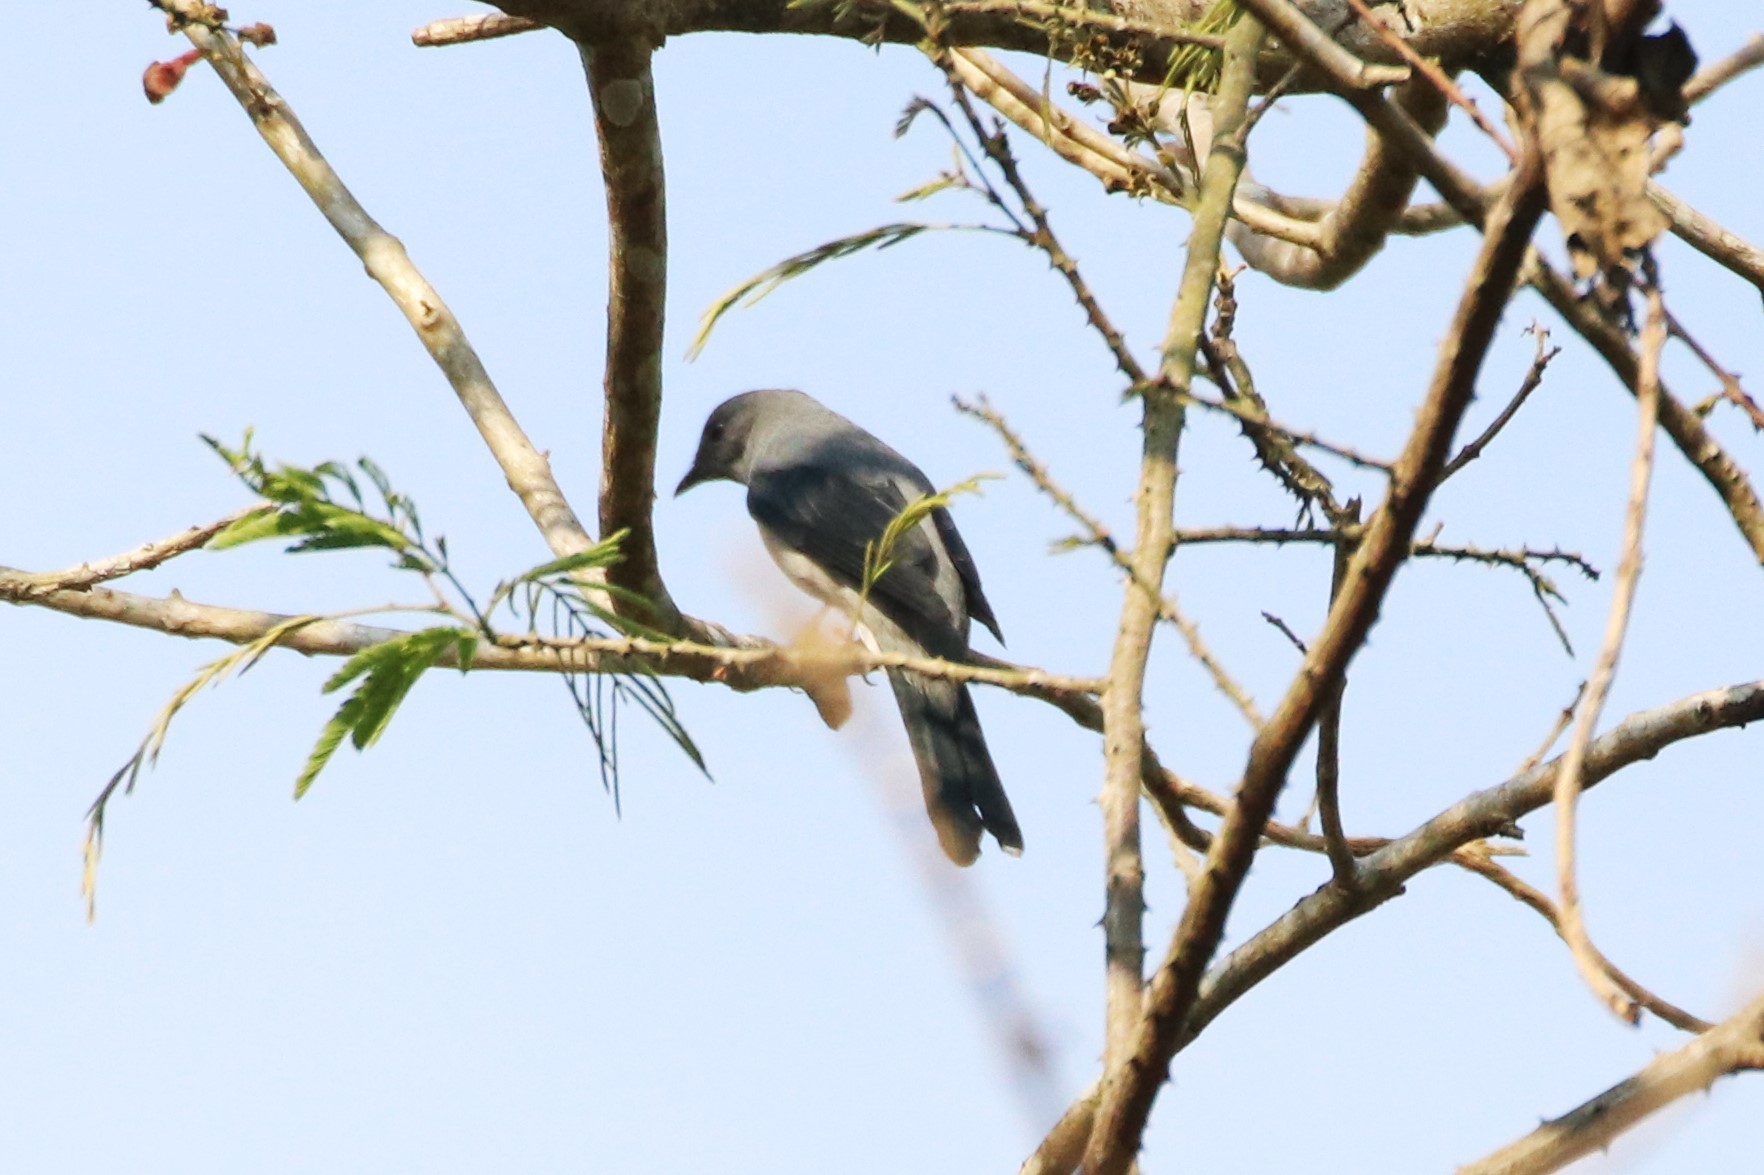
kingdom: Animalia
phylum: Chordata
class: Aves
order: Passeriformes
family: Campephagidae
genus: Coracina
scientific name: Coracina melaschistos
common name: Black-winged cuckooshrike
